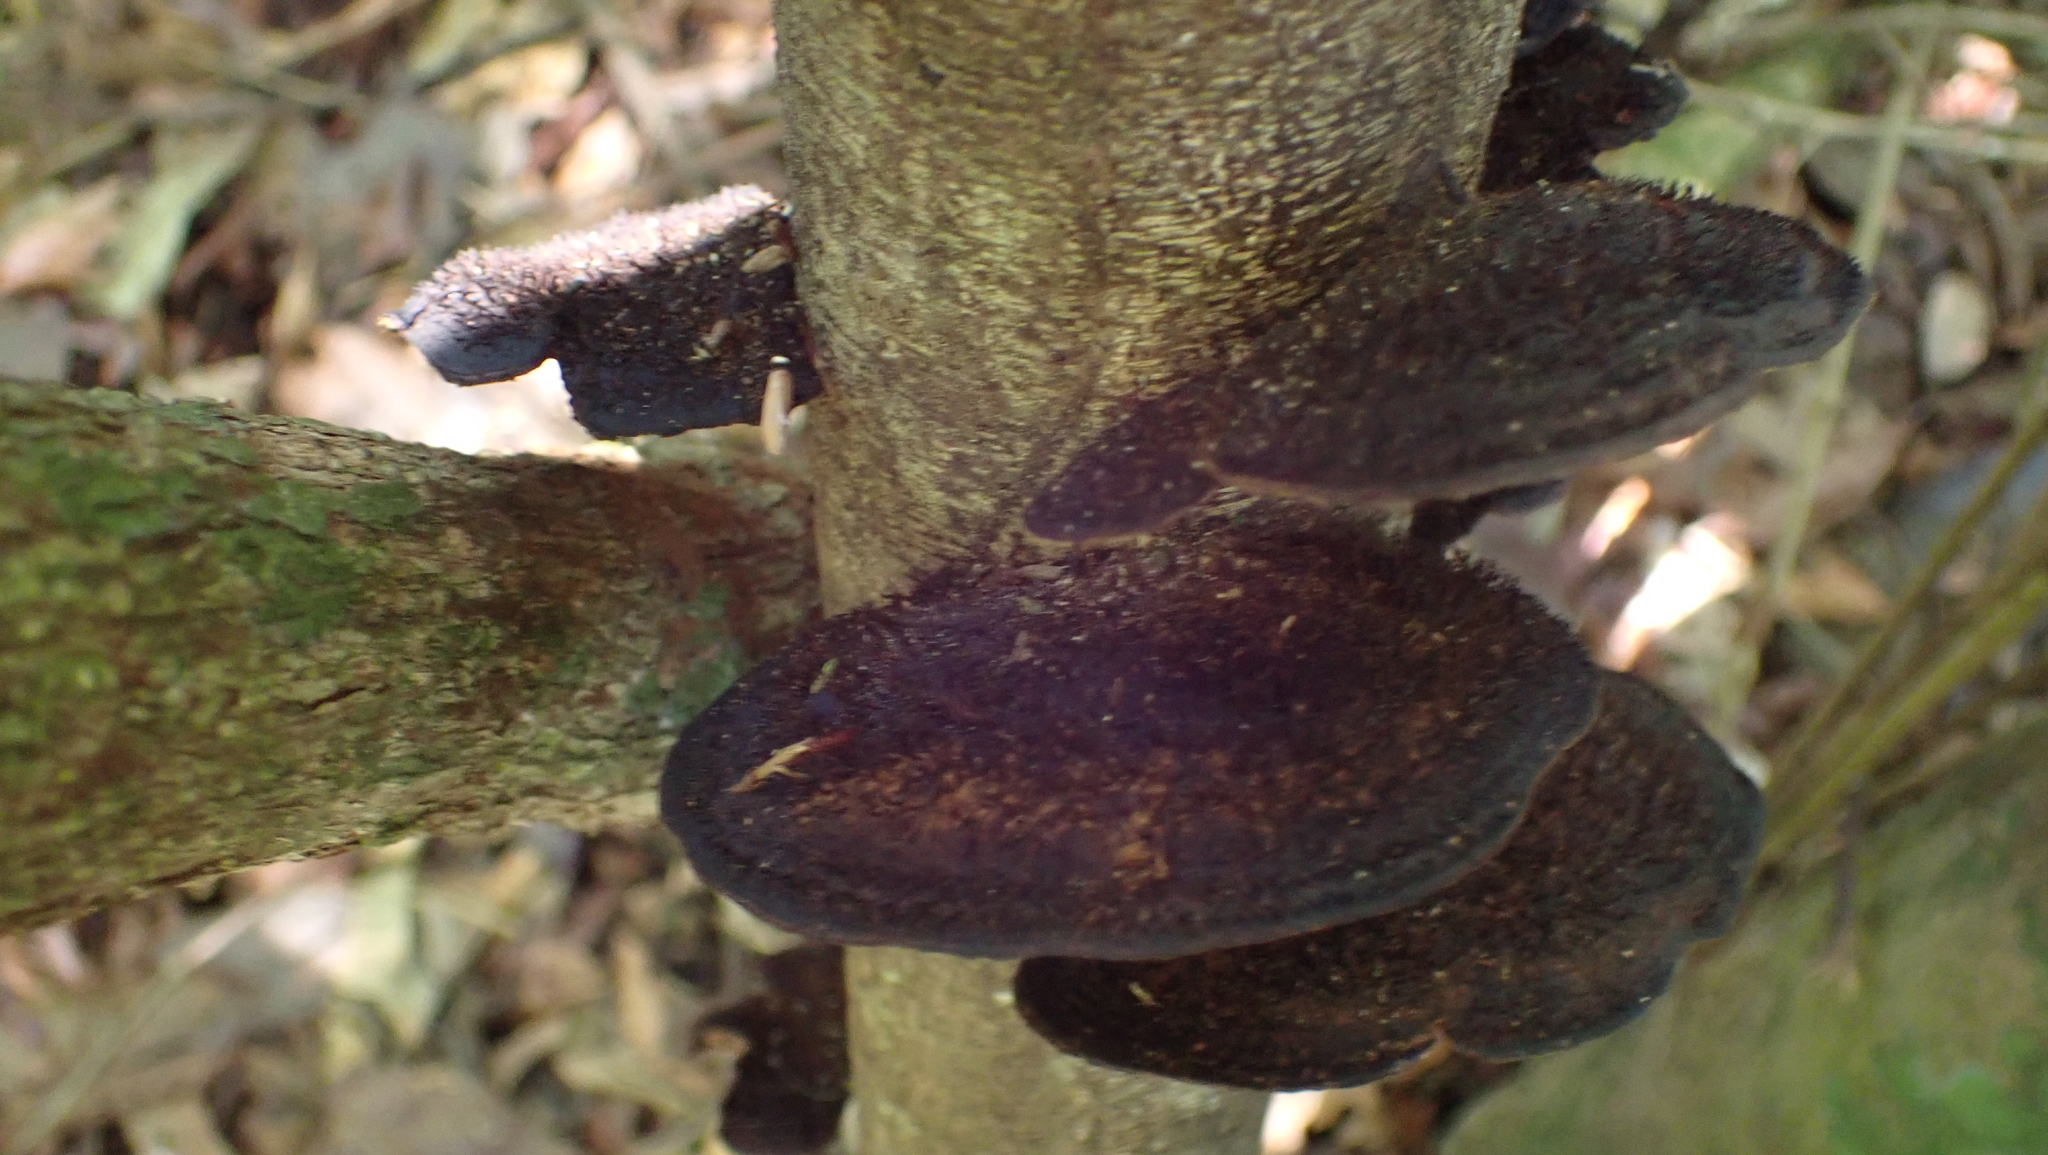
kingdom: Fungi
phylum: Basidiomycota
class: Agaricomycetes
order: Polyporales
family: Cerrenaceae
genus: Cerrena
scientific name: Cerrena hydnoides
